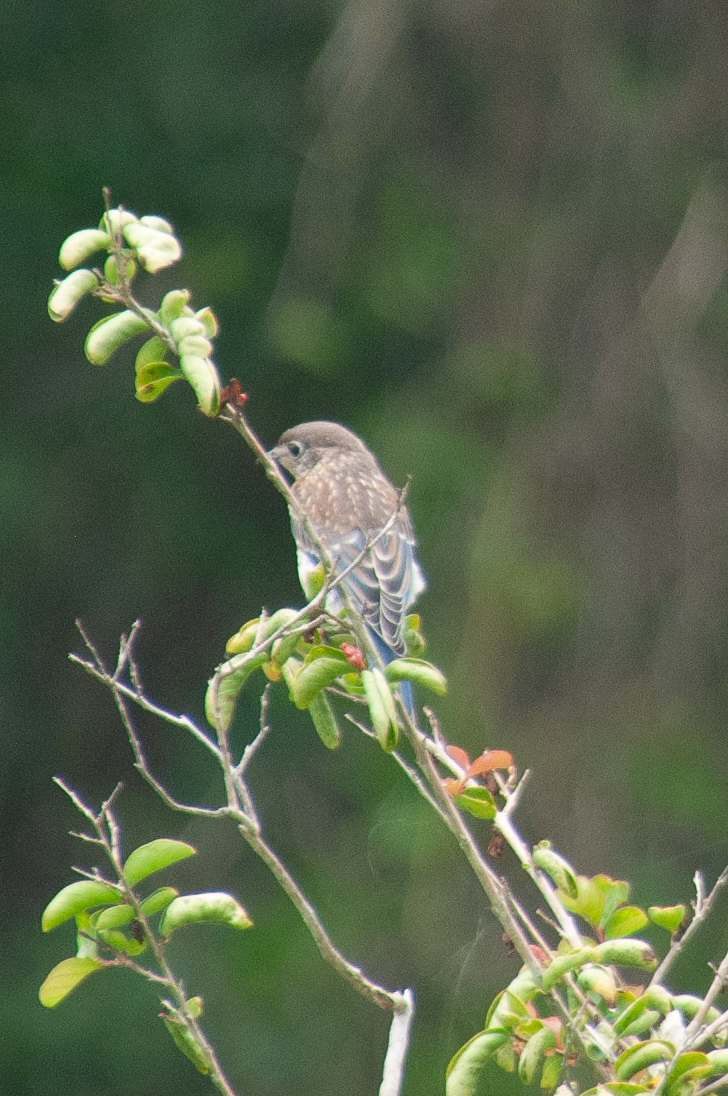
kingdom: Animalia
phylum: Chordata
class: Aves
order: Passeriformes
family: Turdidae
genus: Sialia
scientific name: Sialia sialis
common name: Eastern bluebird
